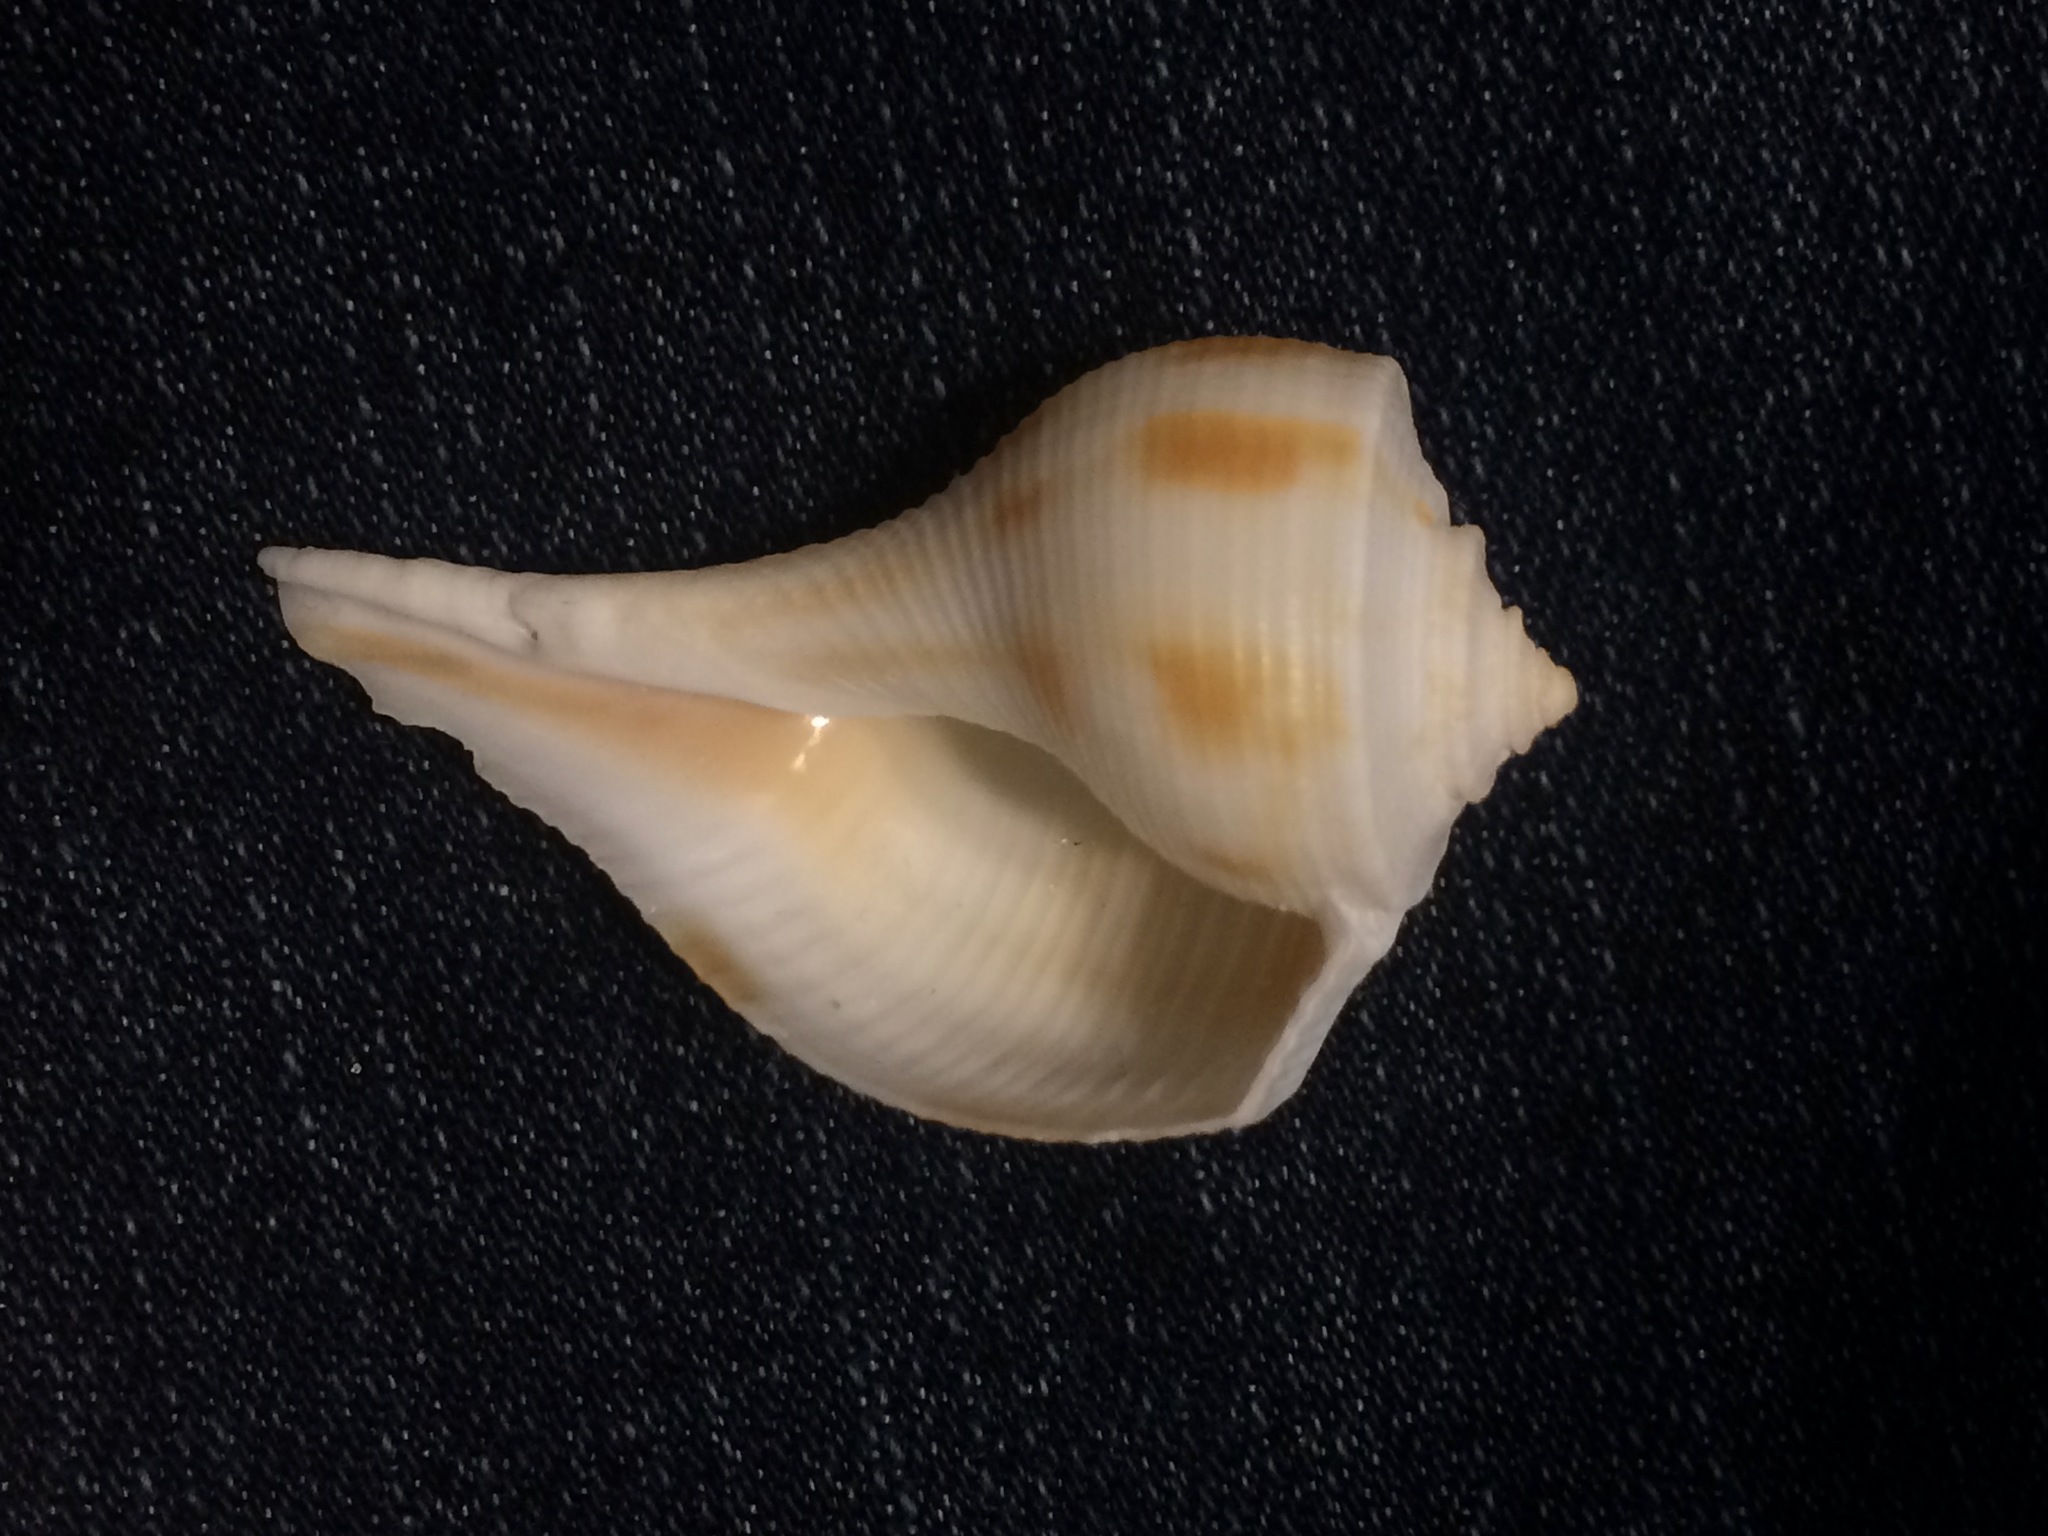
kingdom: Animalia
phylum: Mollusca
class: Gastropoda
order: Neogastropoda
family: Busyconidae
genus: Fulguropsis
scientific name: Fulguropsis pyruloides
